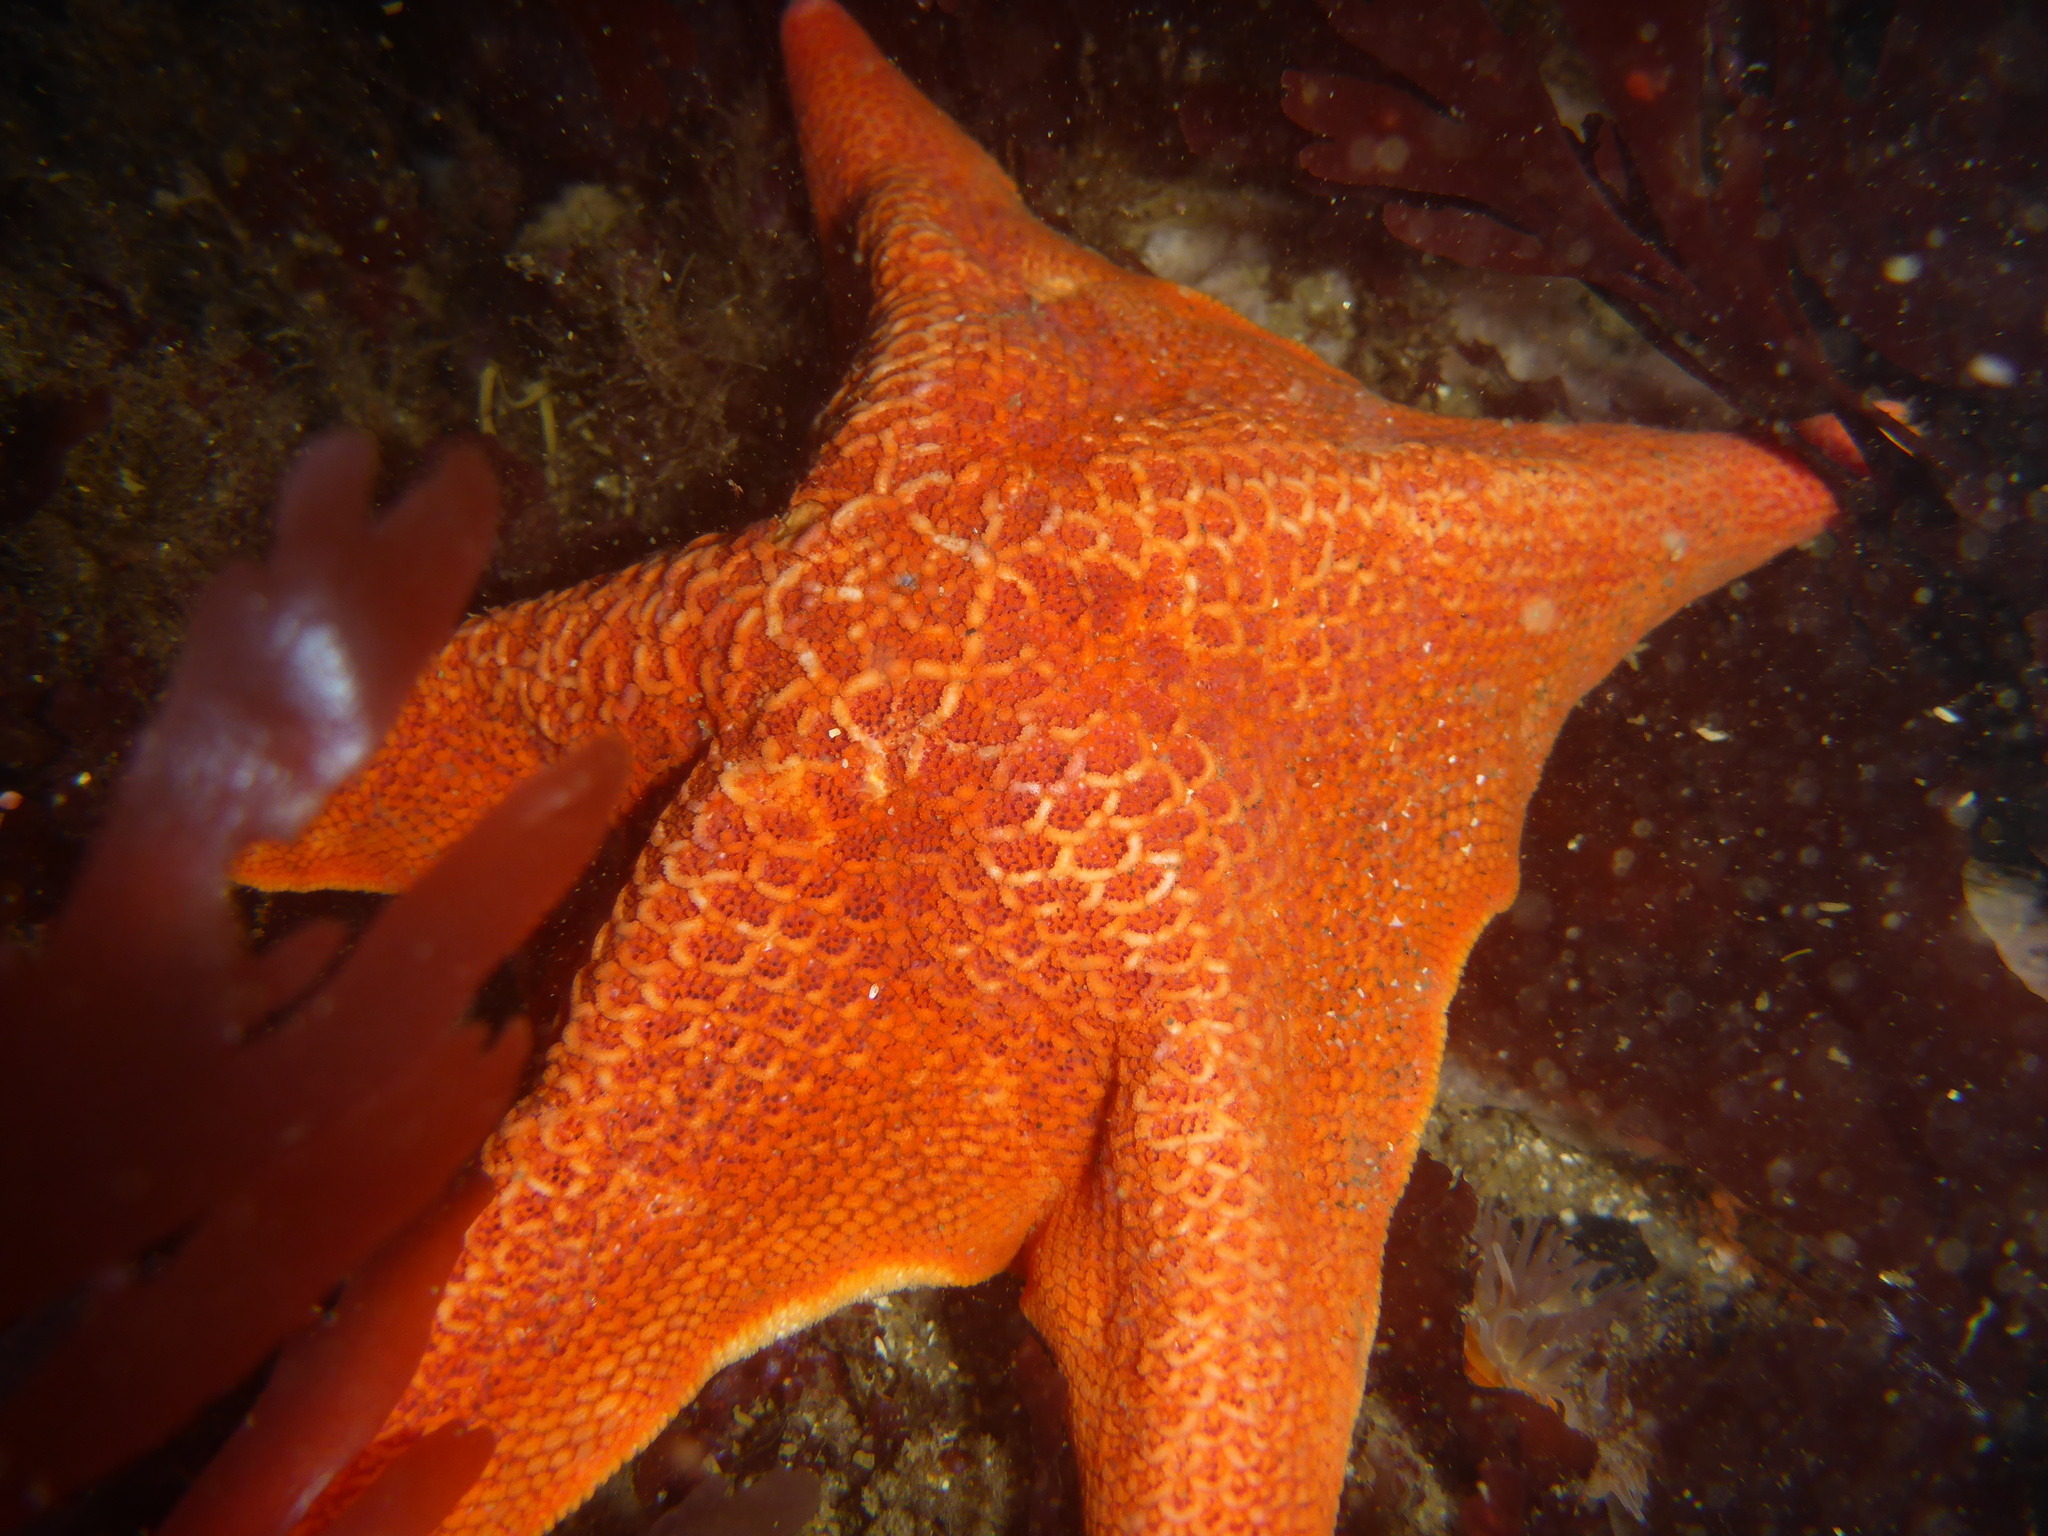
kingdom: Animalia
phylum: Annelida
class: Polychaeta
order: Phyllodocida
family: Hesionidae
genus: Oxydromus
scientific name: Oxydromus pugettensis
